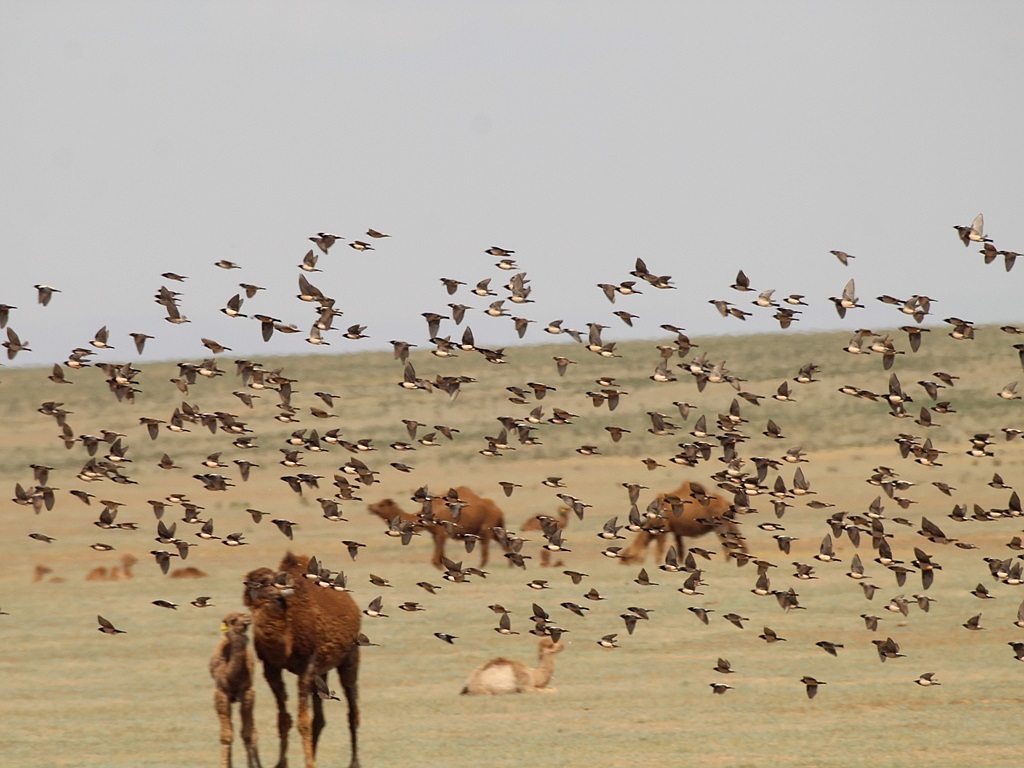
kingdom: Animalia
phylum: Chordata
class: Aves
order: Passeriformes
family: Sturnidae
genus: Pastor
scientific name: Pastor roseus
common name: Rosy starling
